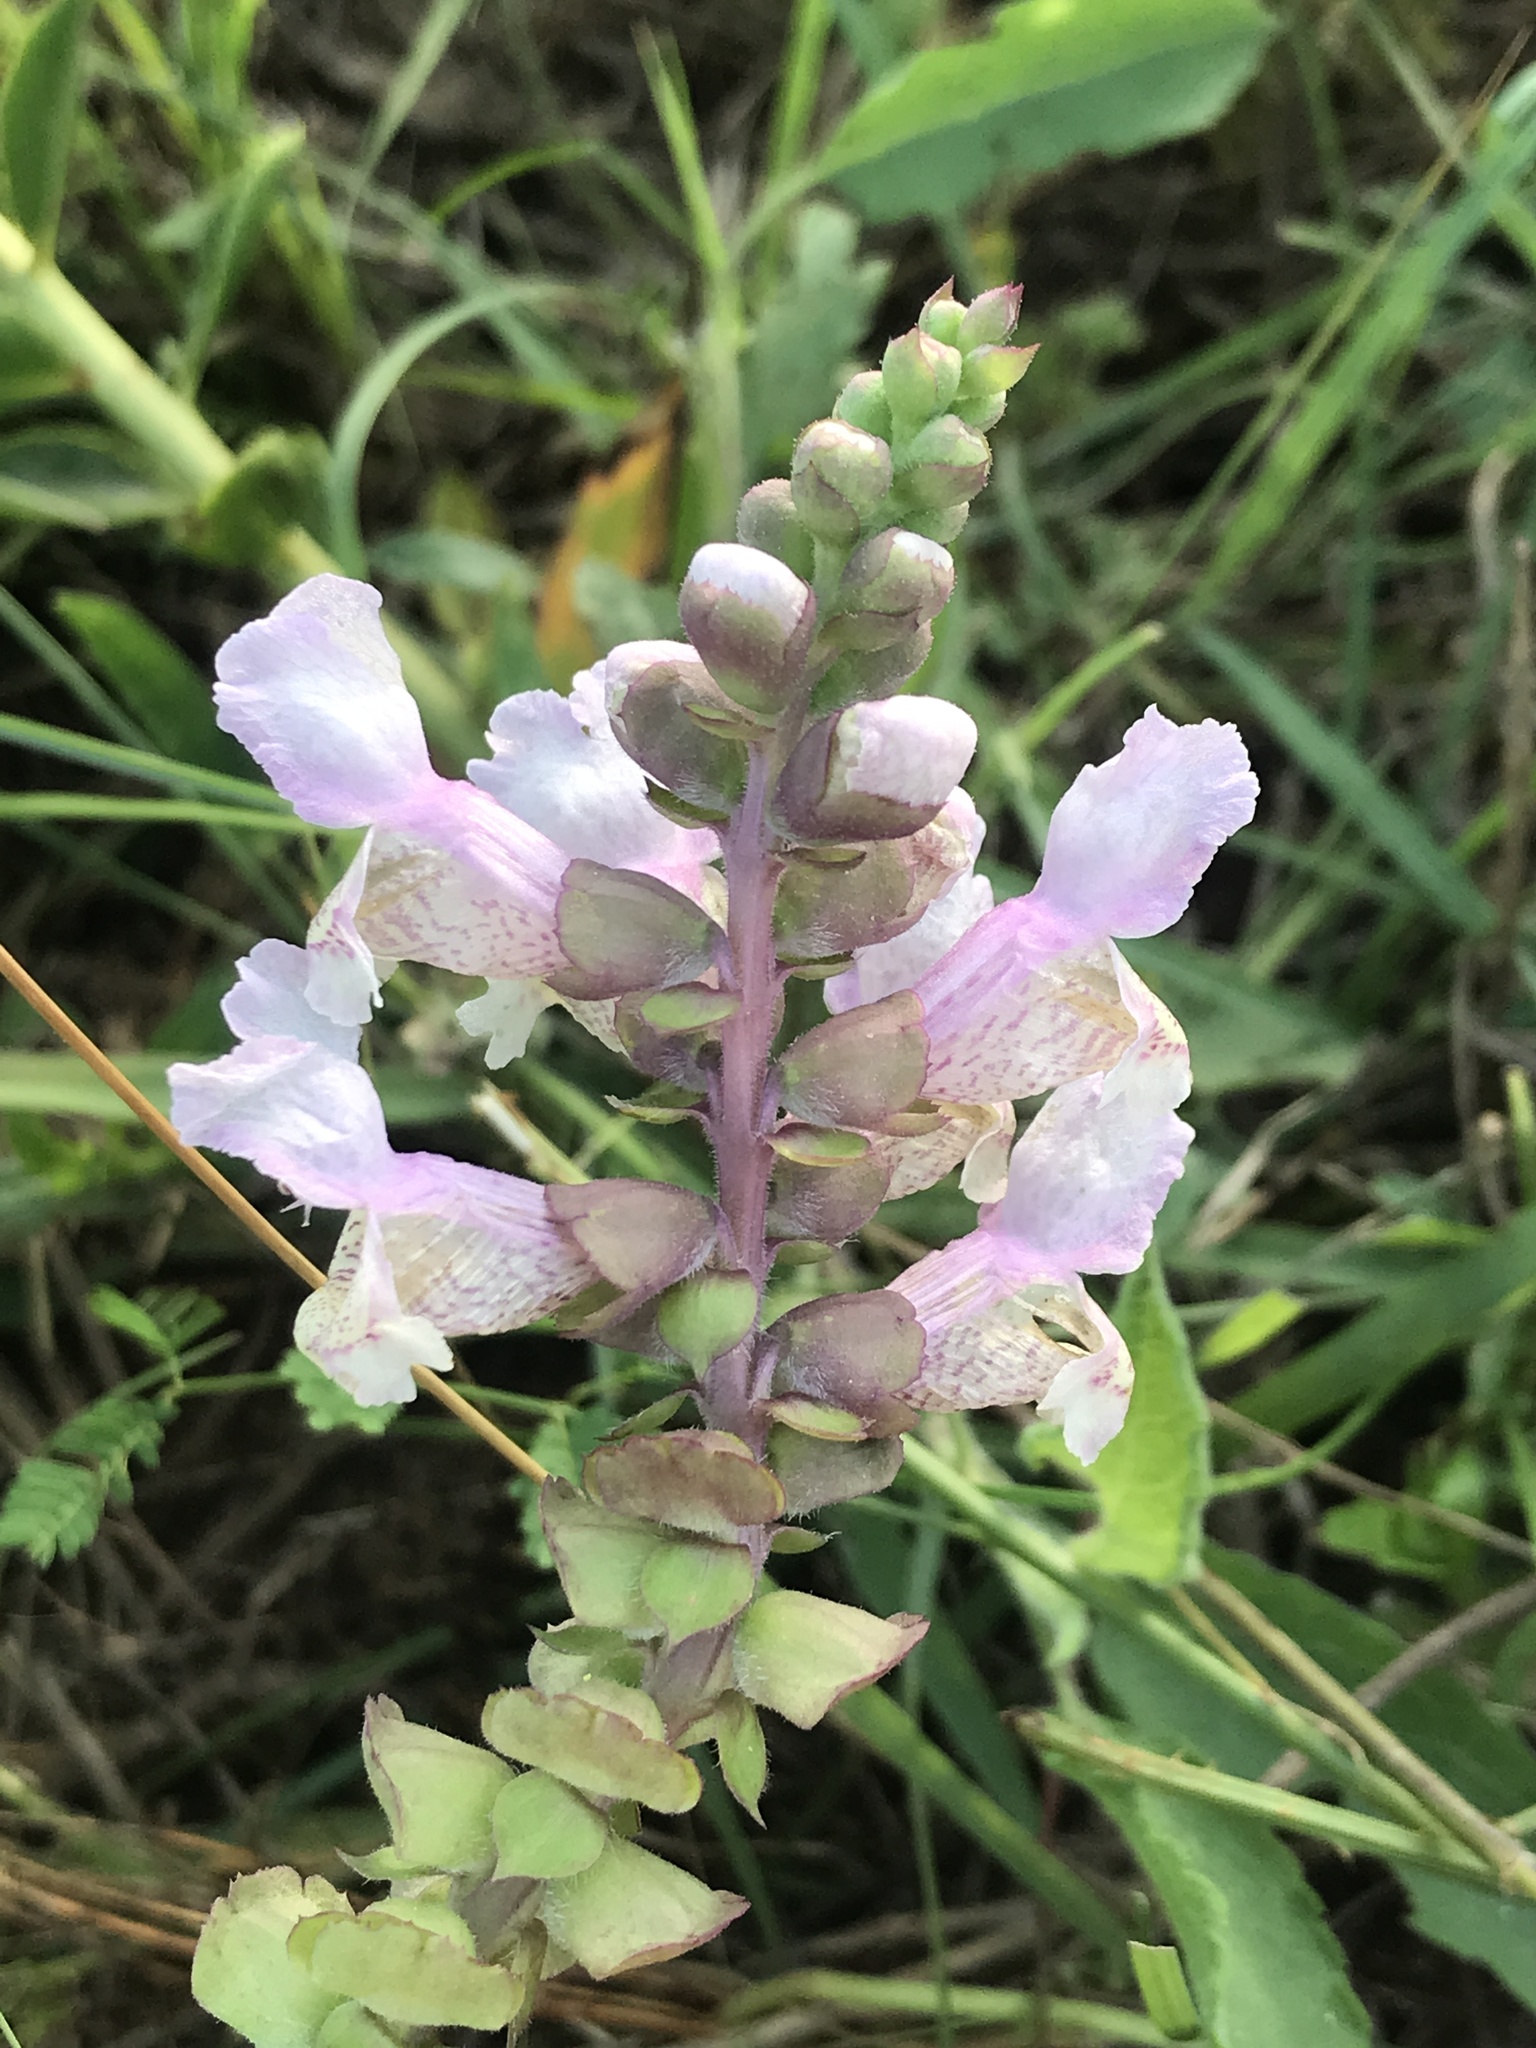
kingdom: Plantae
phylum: Tracheophyta
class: Magnoliopsida
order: Lamiales
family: Lamiaceae
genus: Brazoria
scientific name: Brazoria truncata
